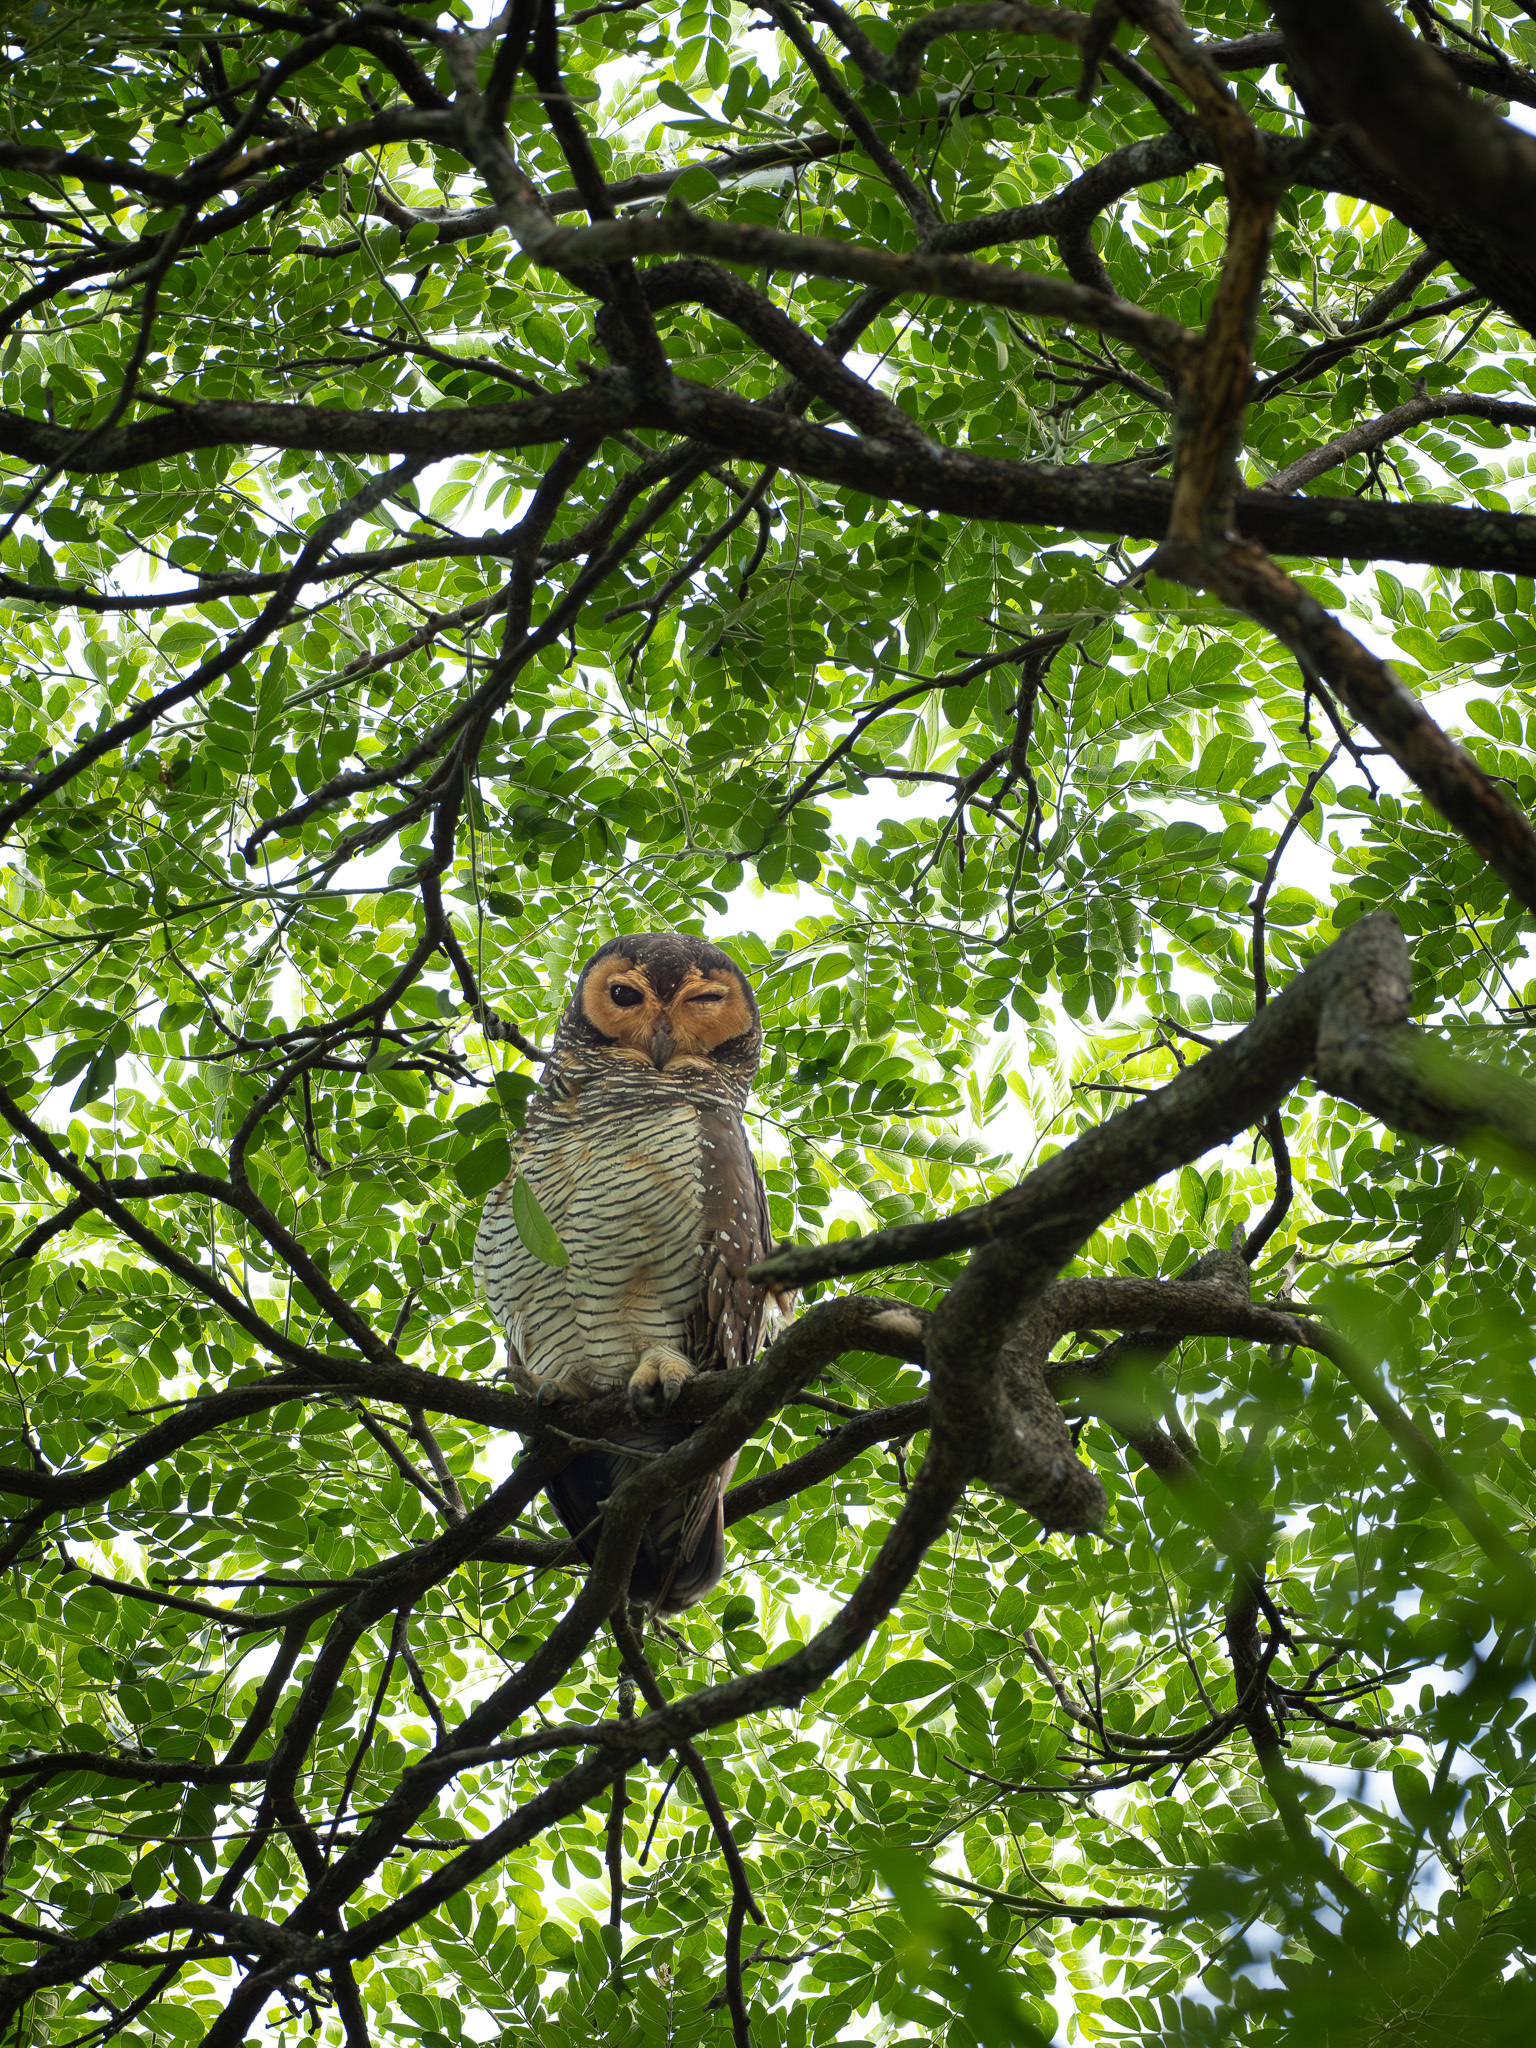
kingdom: Animalia
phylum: Chordata
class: Aves
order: Strigiformes
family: Strigidae
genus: Strix
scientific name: Strix seloputo
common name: Spotted wood owl
